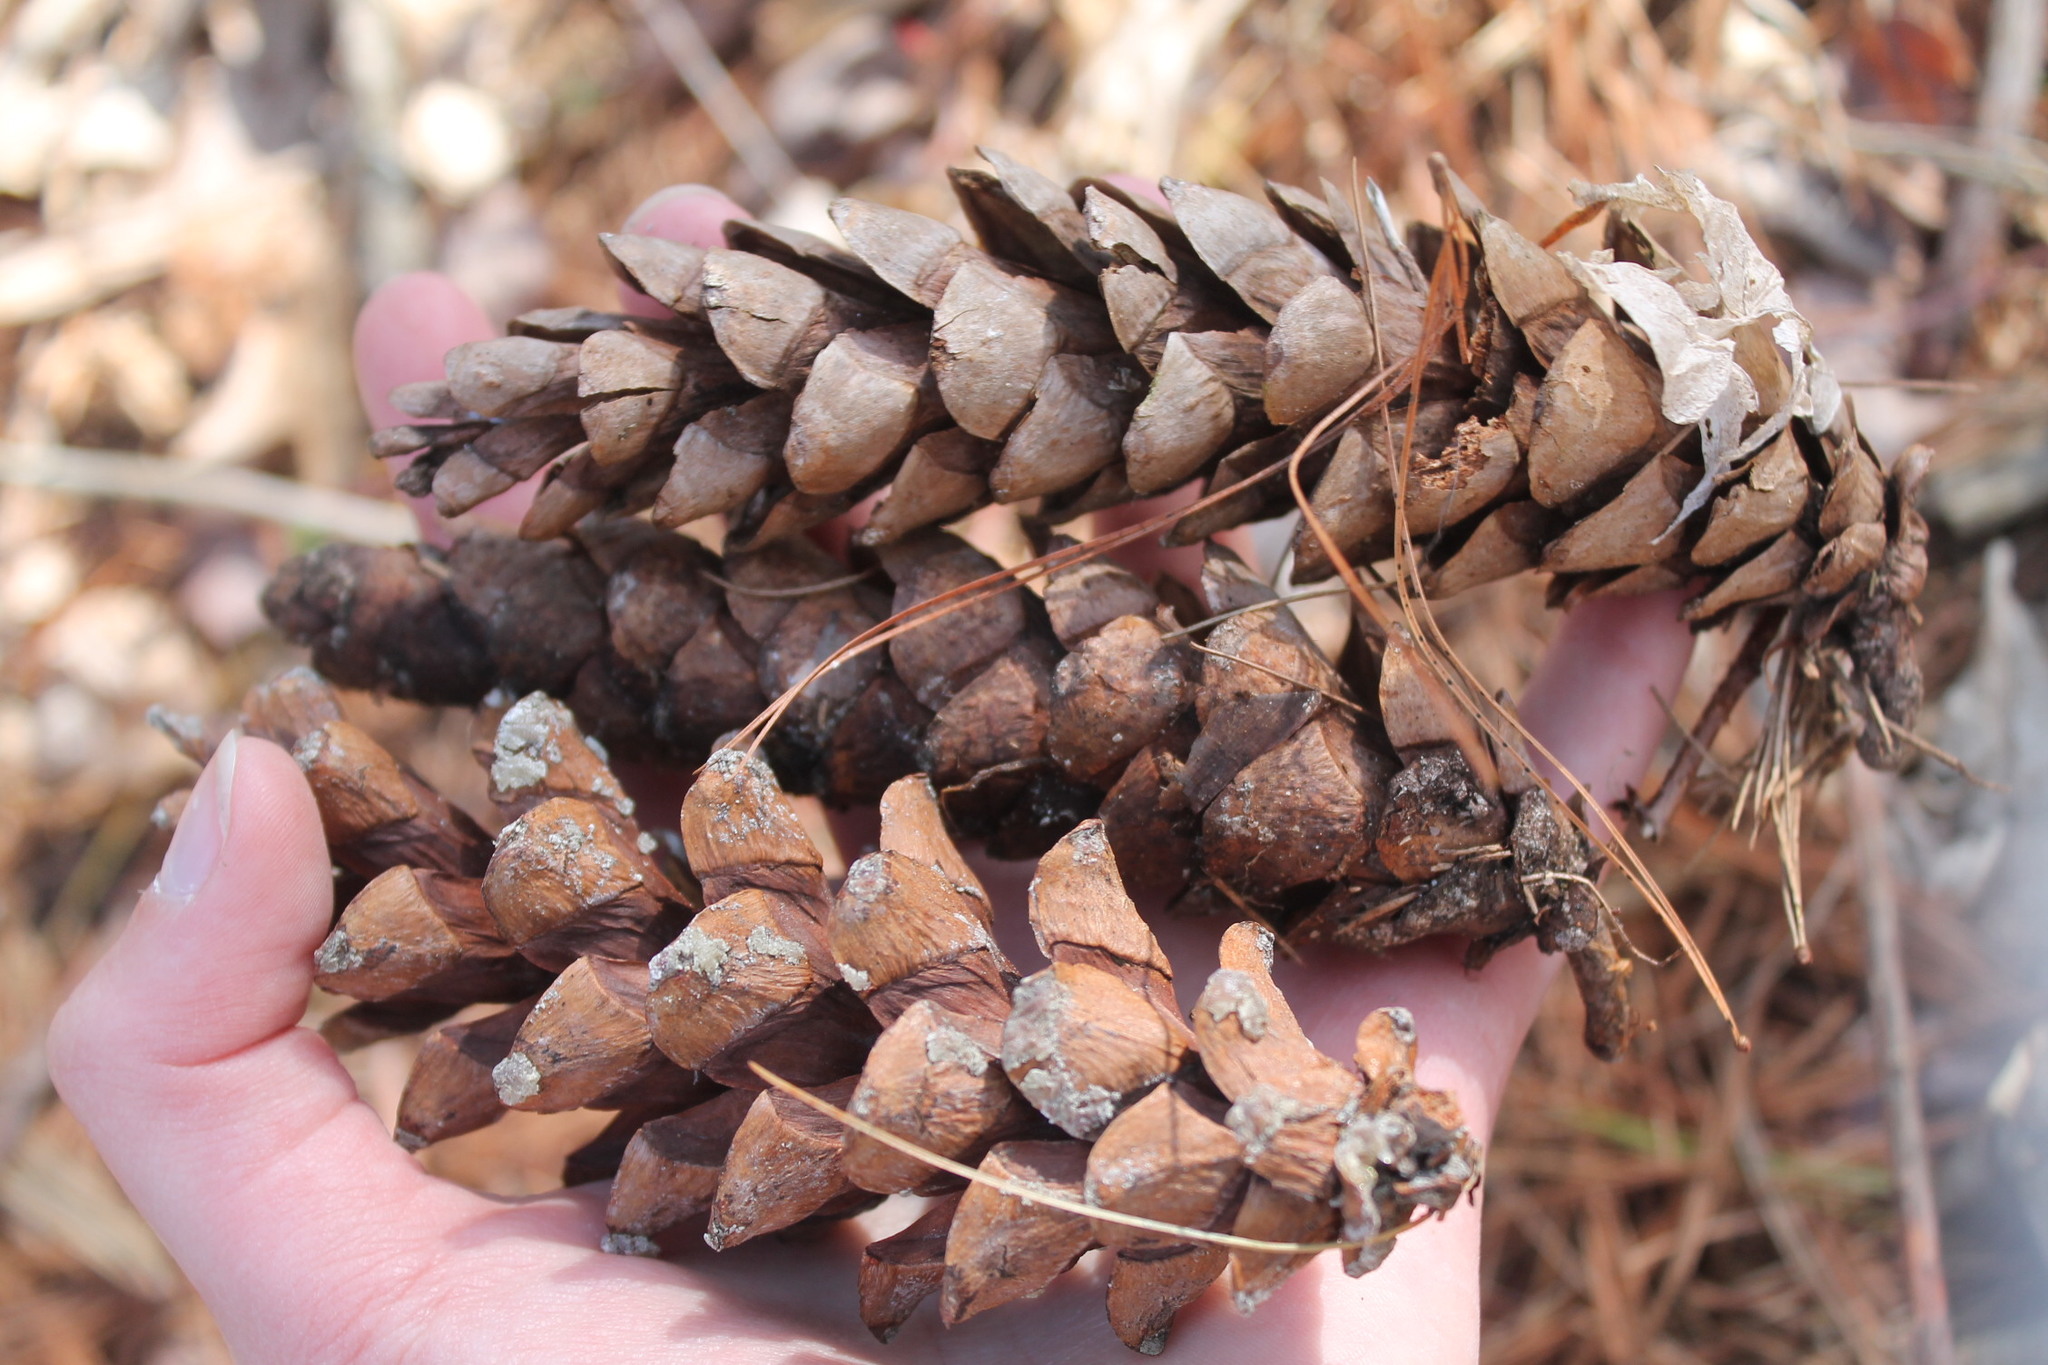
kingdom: Plantae
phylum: Tracheophyta
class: Pinopsida
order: Pinales
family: Pinaceae
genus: Pinus
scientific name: Pinus strobus
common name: Weymouth pine
